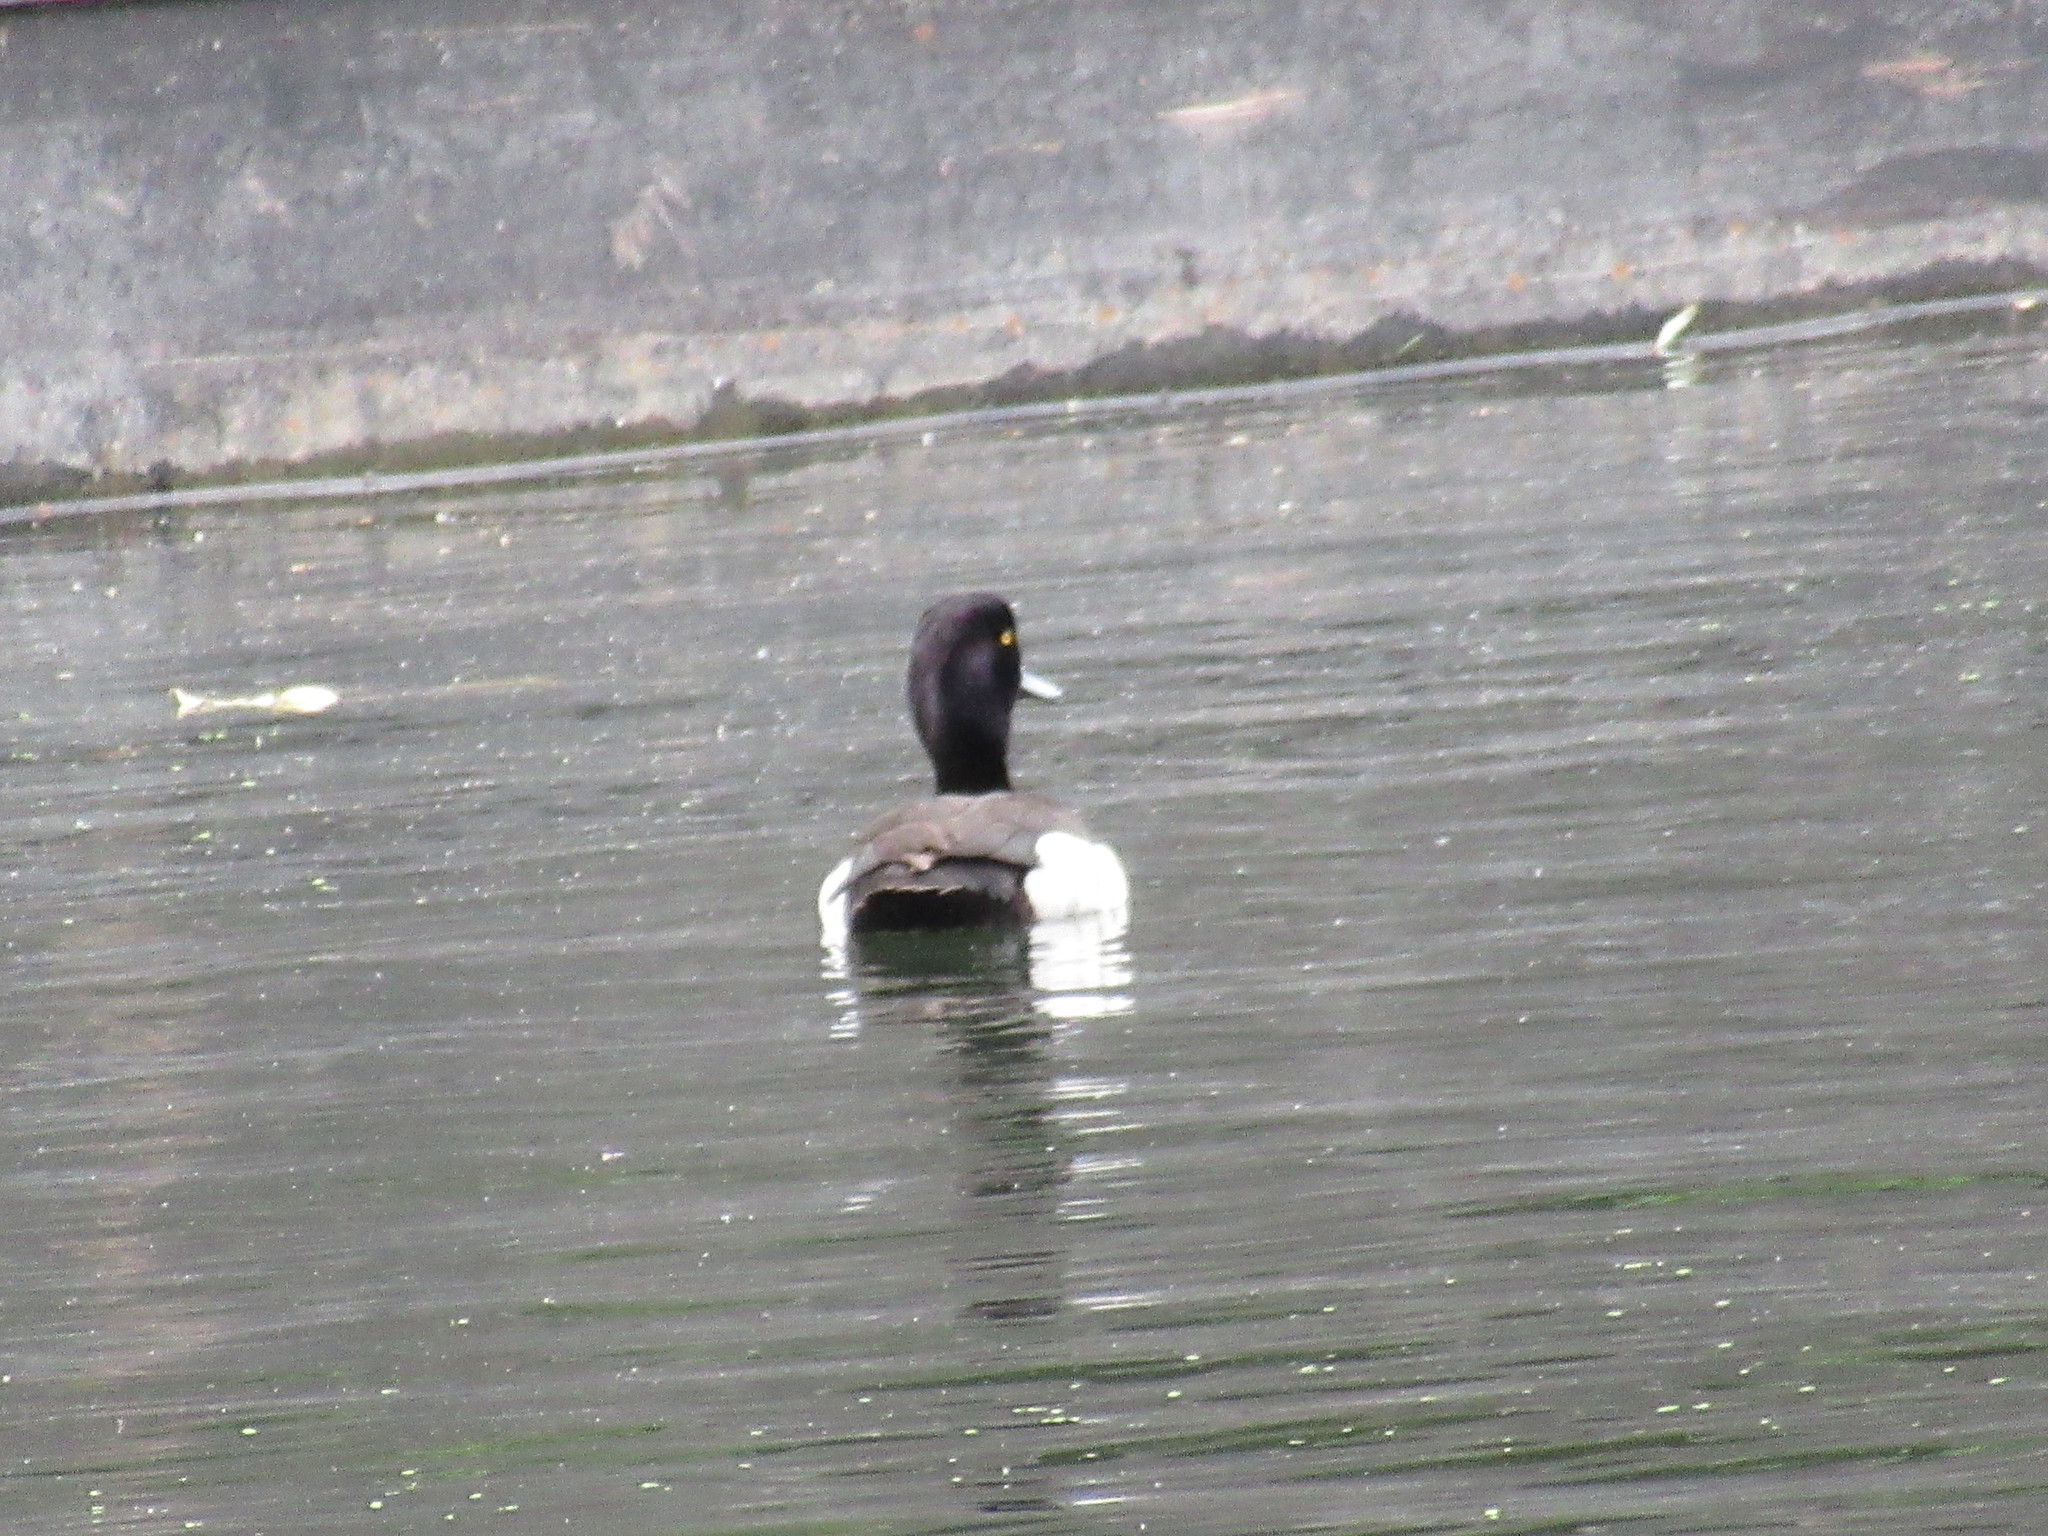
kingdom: Animalia
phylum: Chordata
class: Aves
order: Anseriformes
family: Anatidae
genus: Aythya
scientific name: Aythya fuligula
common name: Tufted duck
